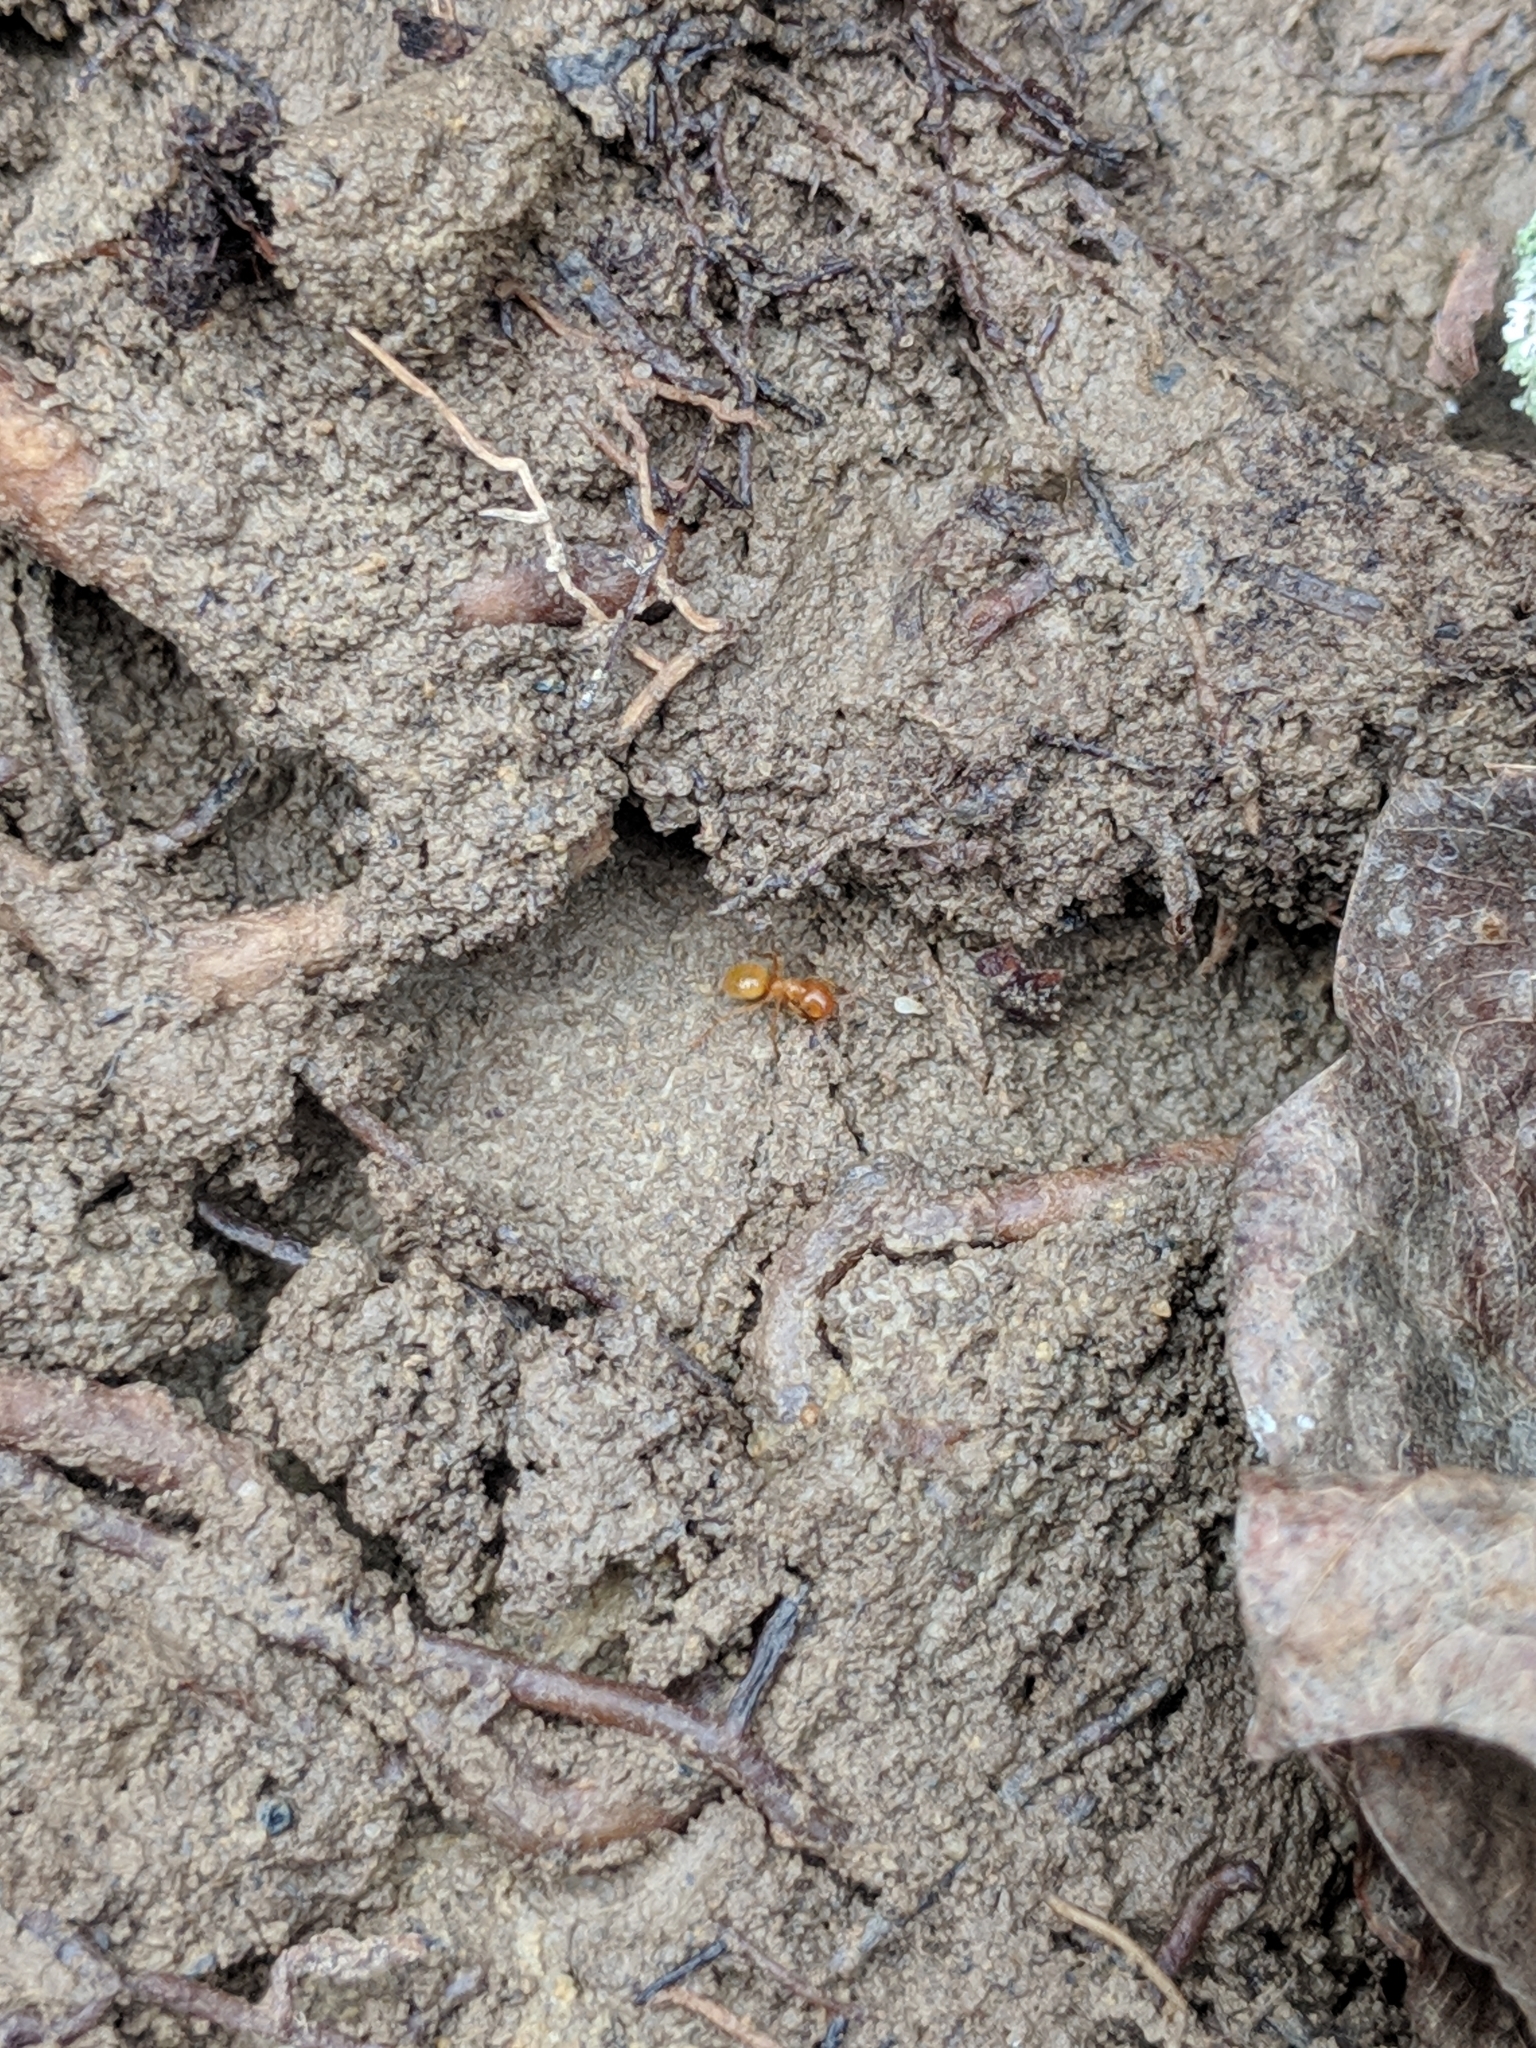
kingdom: Animalia
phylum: Arthropoda
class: Insecta
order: Hymenoptera
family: Formicidae
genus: Lasius
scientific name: Lasius claviger
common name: Common citronella ant
